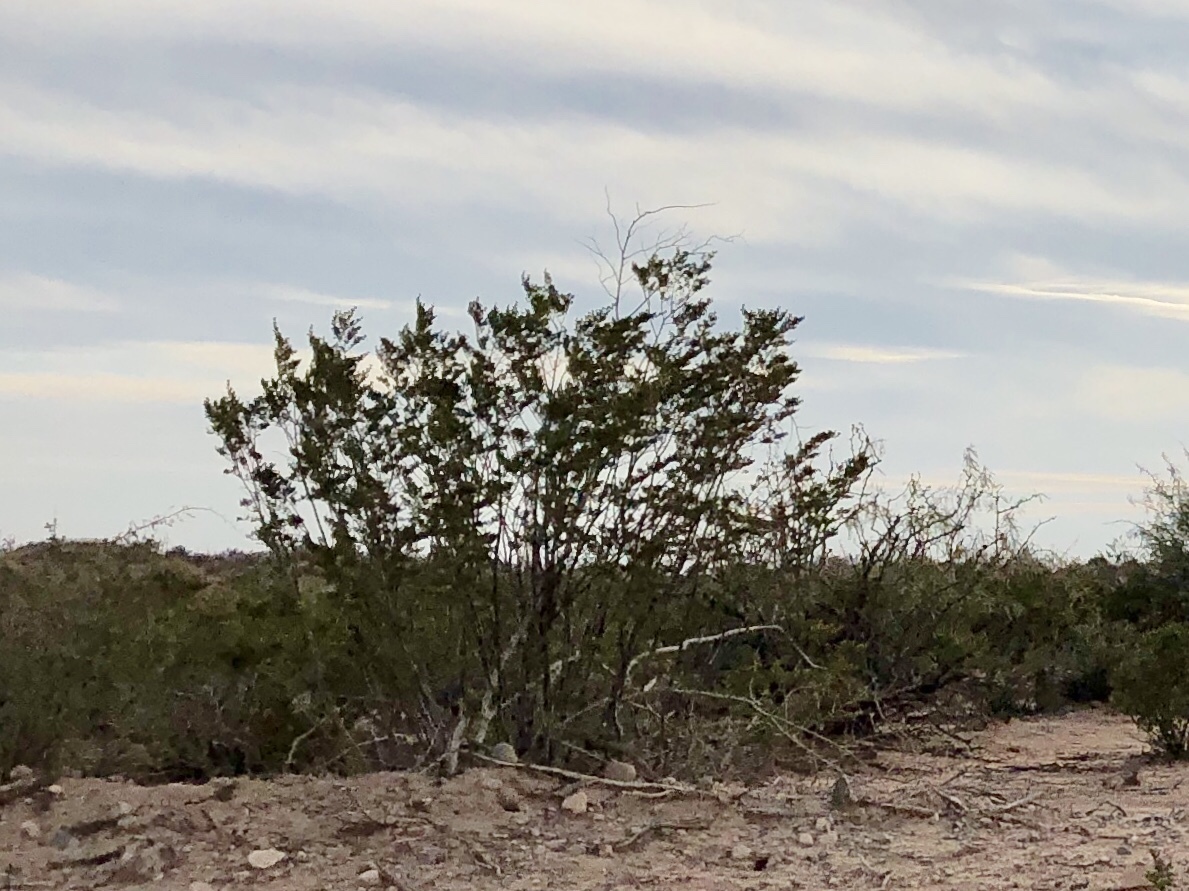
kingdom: Plantae
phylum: Tracheophyta
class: Magnoliopsida
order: Zygophyllales
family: Zygophyllaceae
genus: Larrea
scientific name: Larrea tridentata
